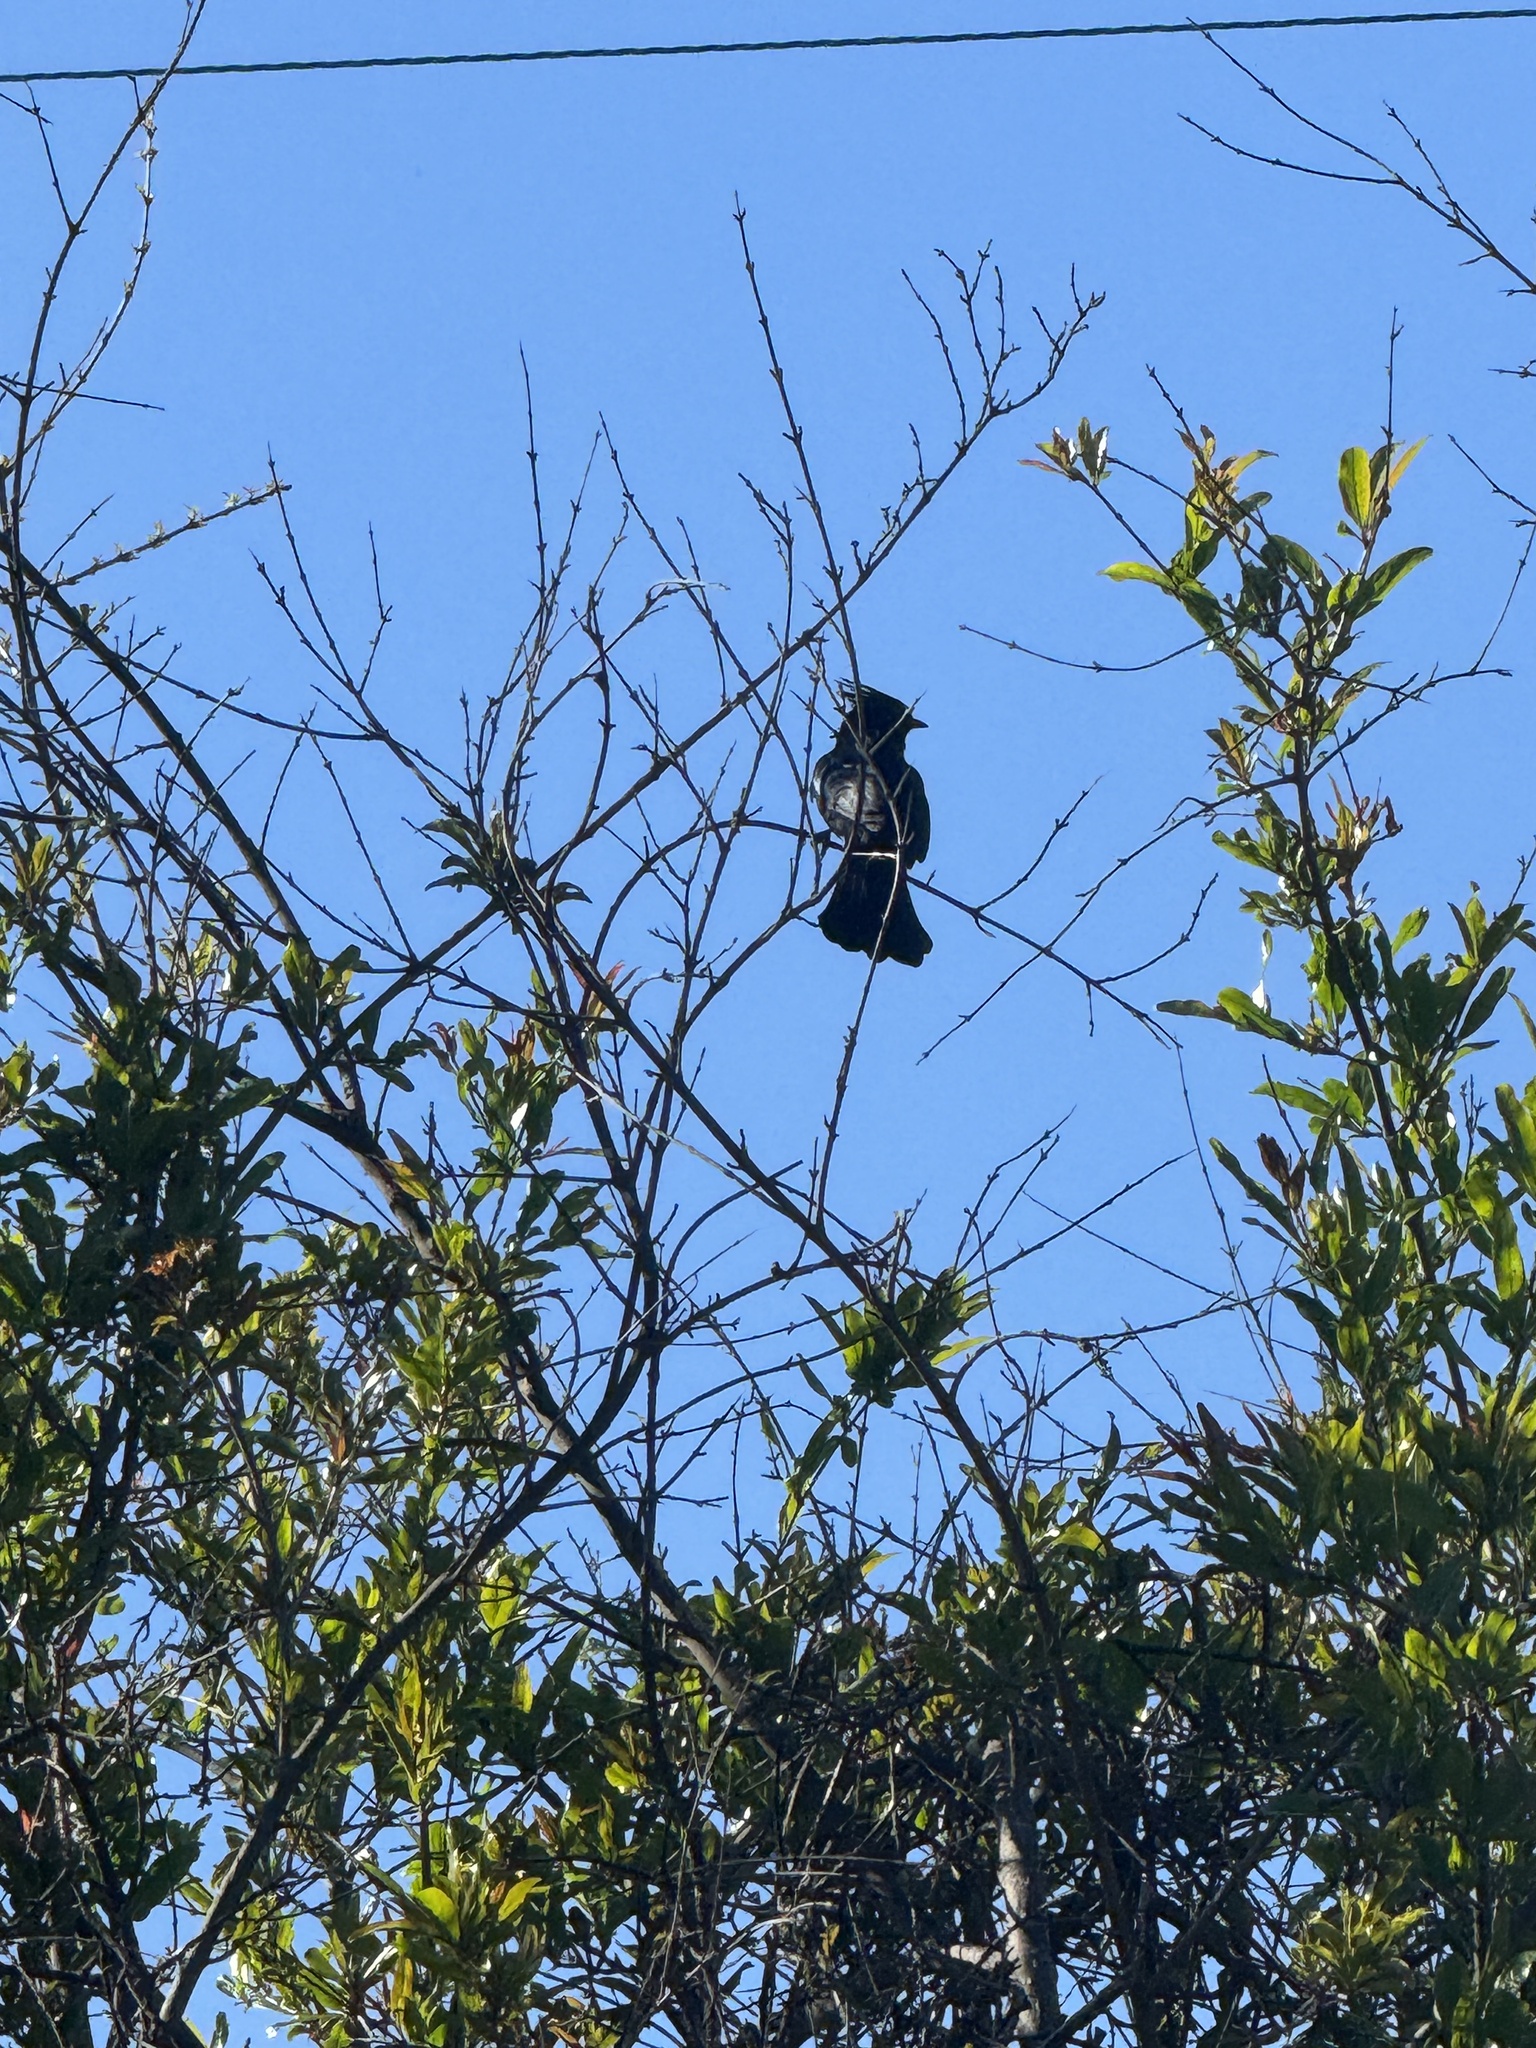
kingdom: Animalia
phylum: Chordata
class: Aves
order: Passeriformes
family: Ptilogonatidae
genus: Phainopepla
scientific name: Phainopepla nitens
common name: Phainopepla
